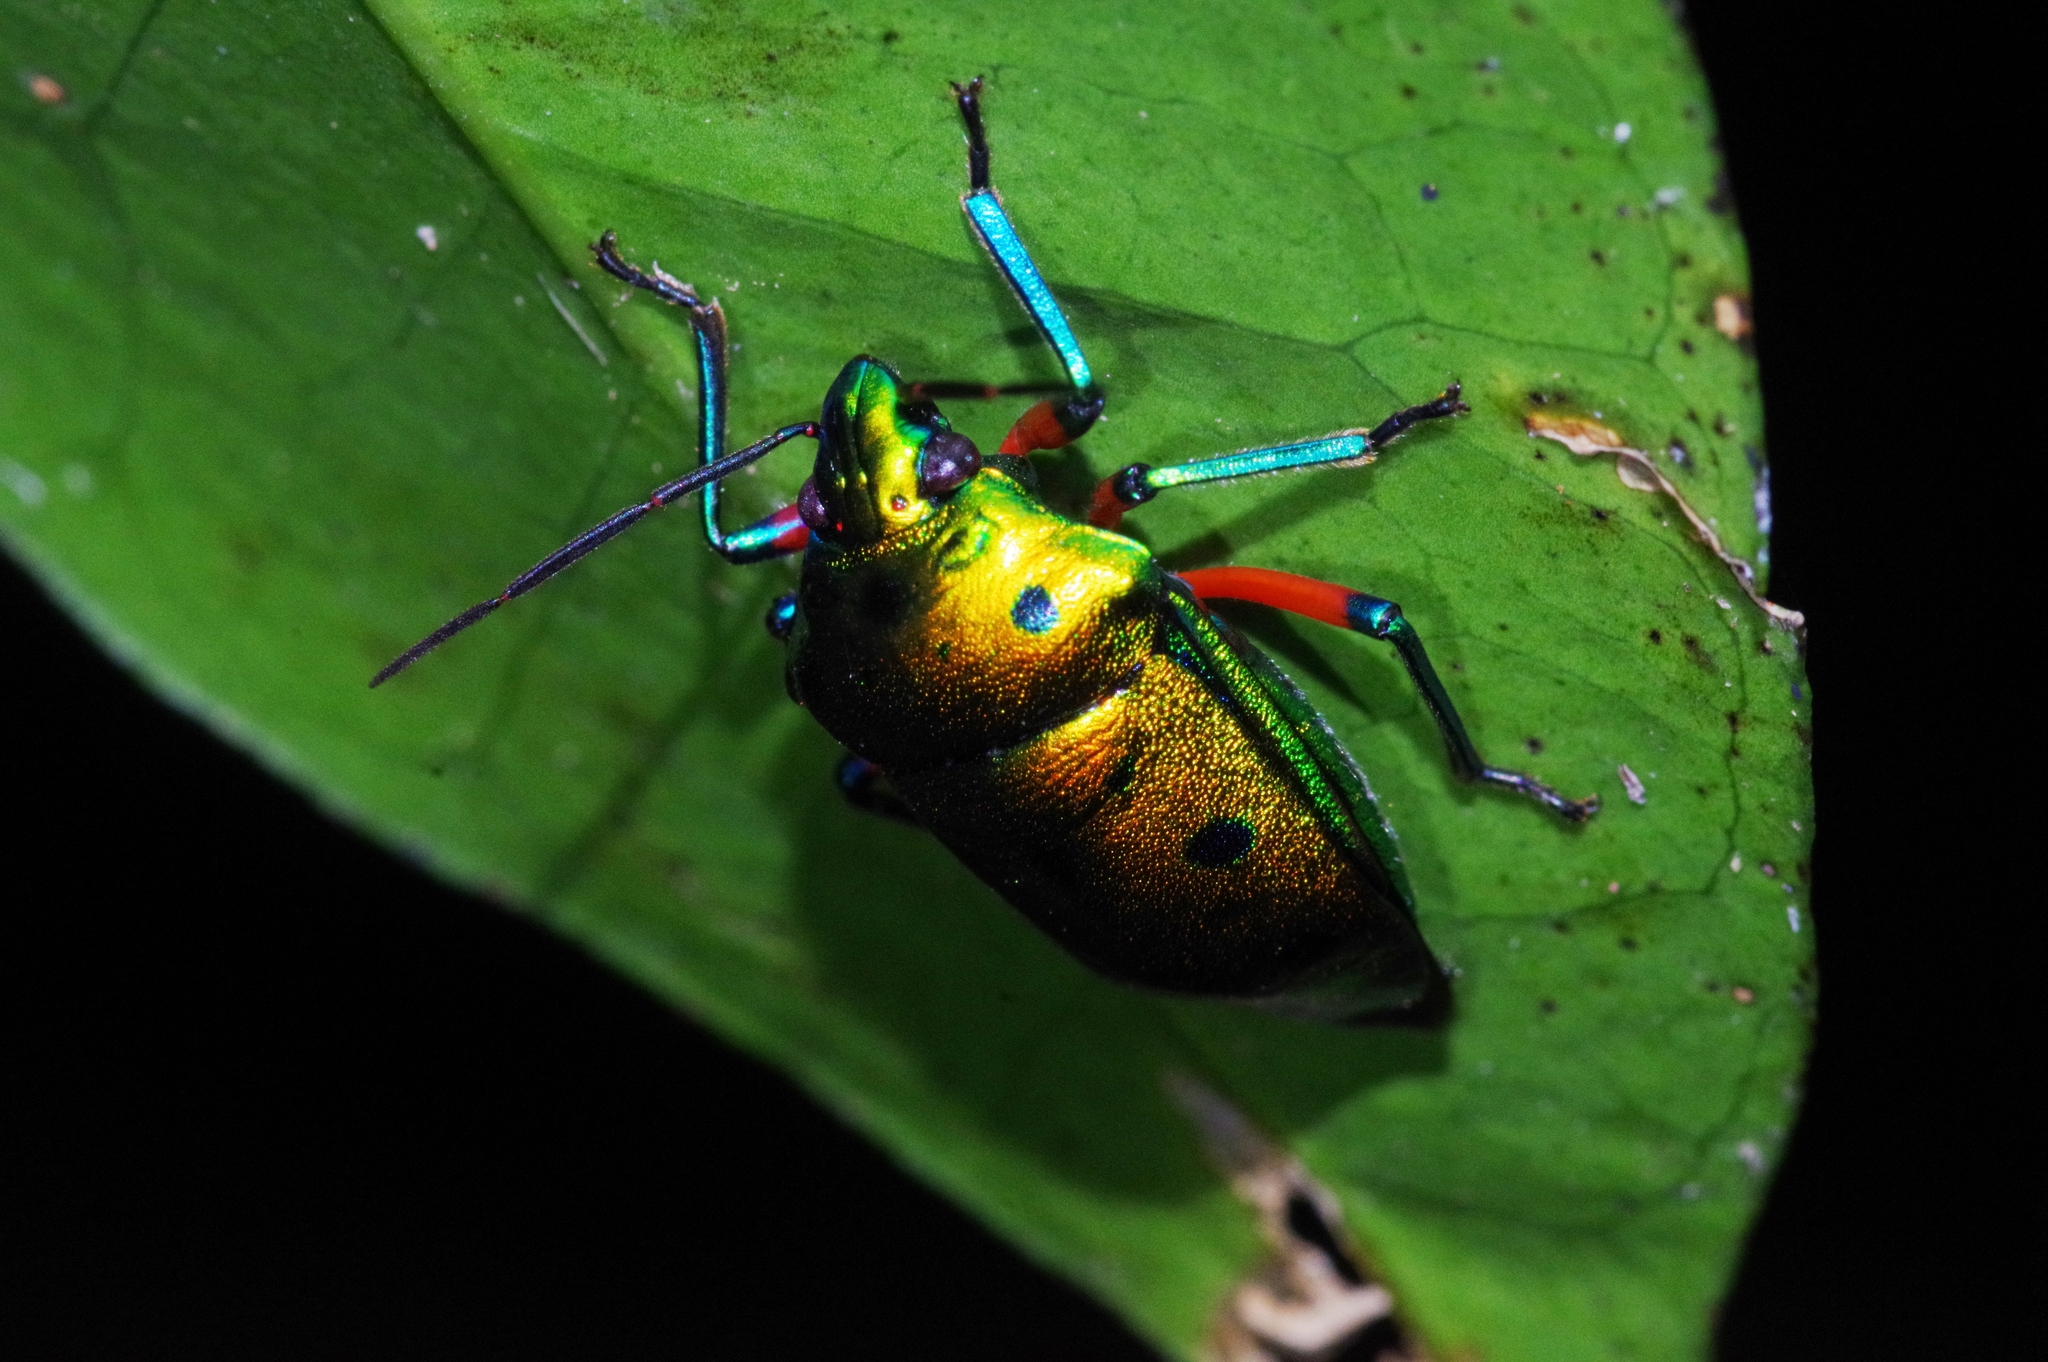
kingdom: Animalia
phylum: Arthropoda
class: Insecta
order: Hemiptera
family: Scutelleridae
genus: Calliphara
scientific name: Calliphara excellens
